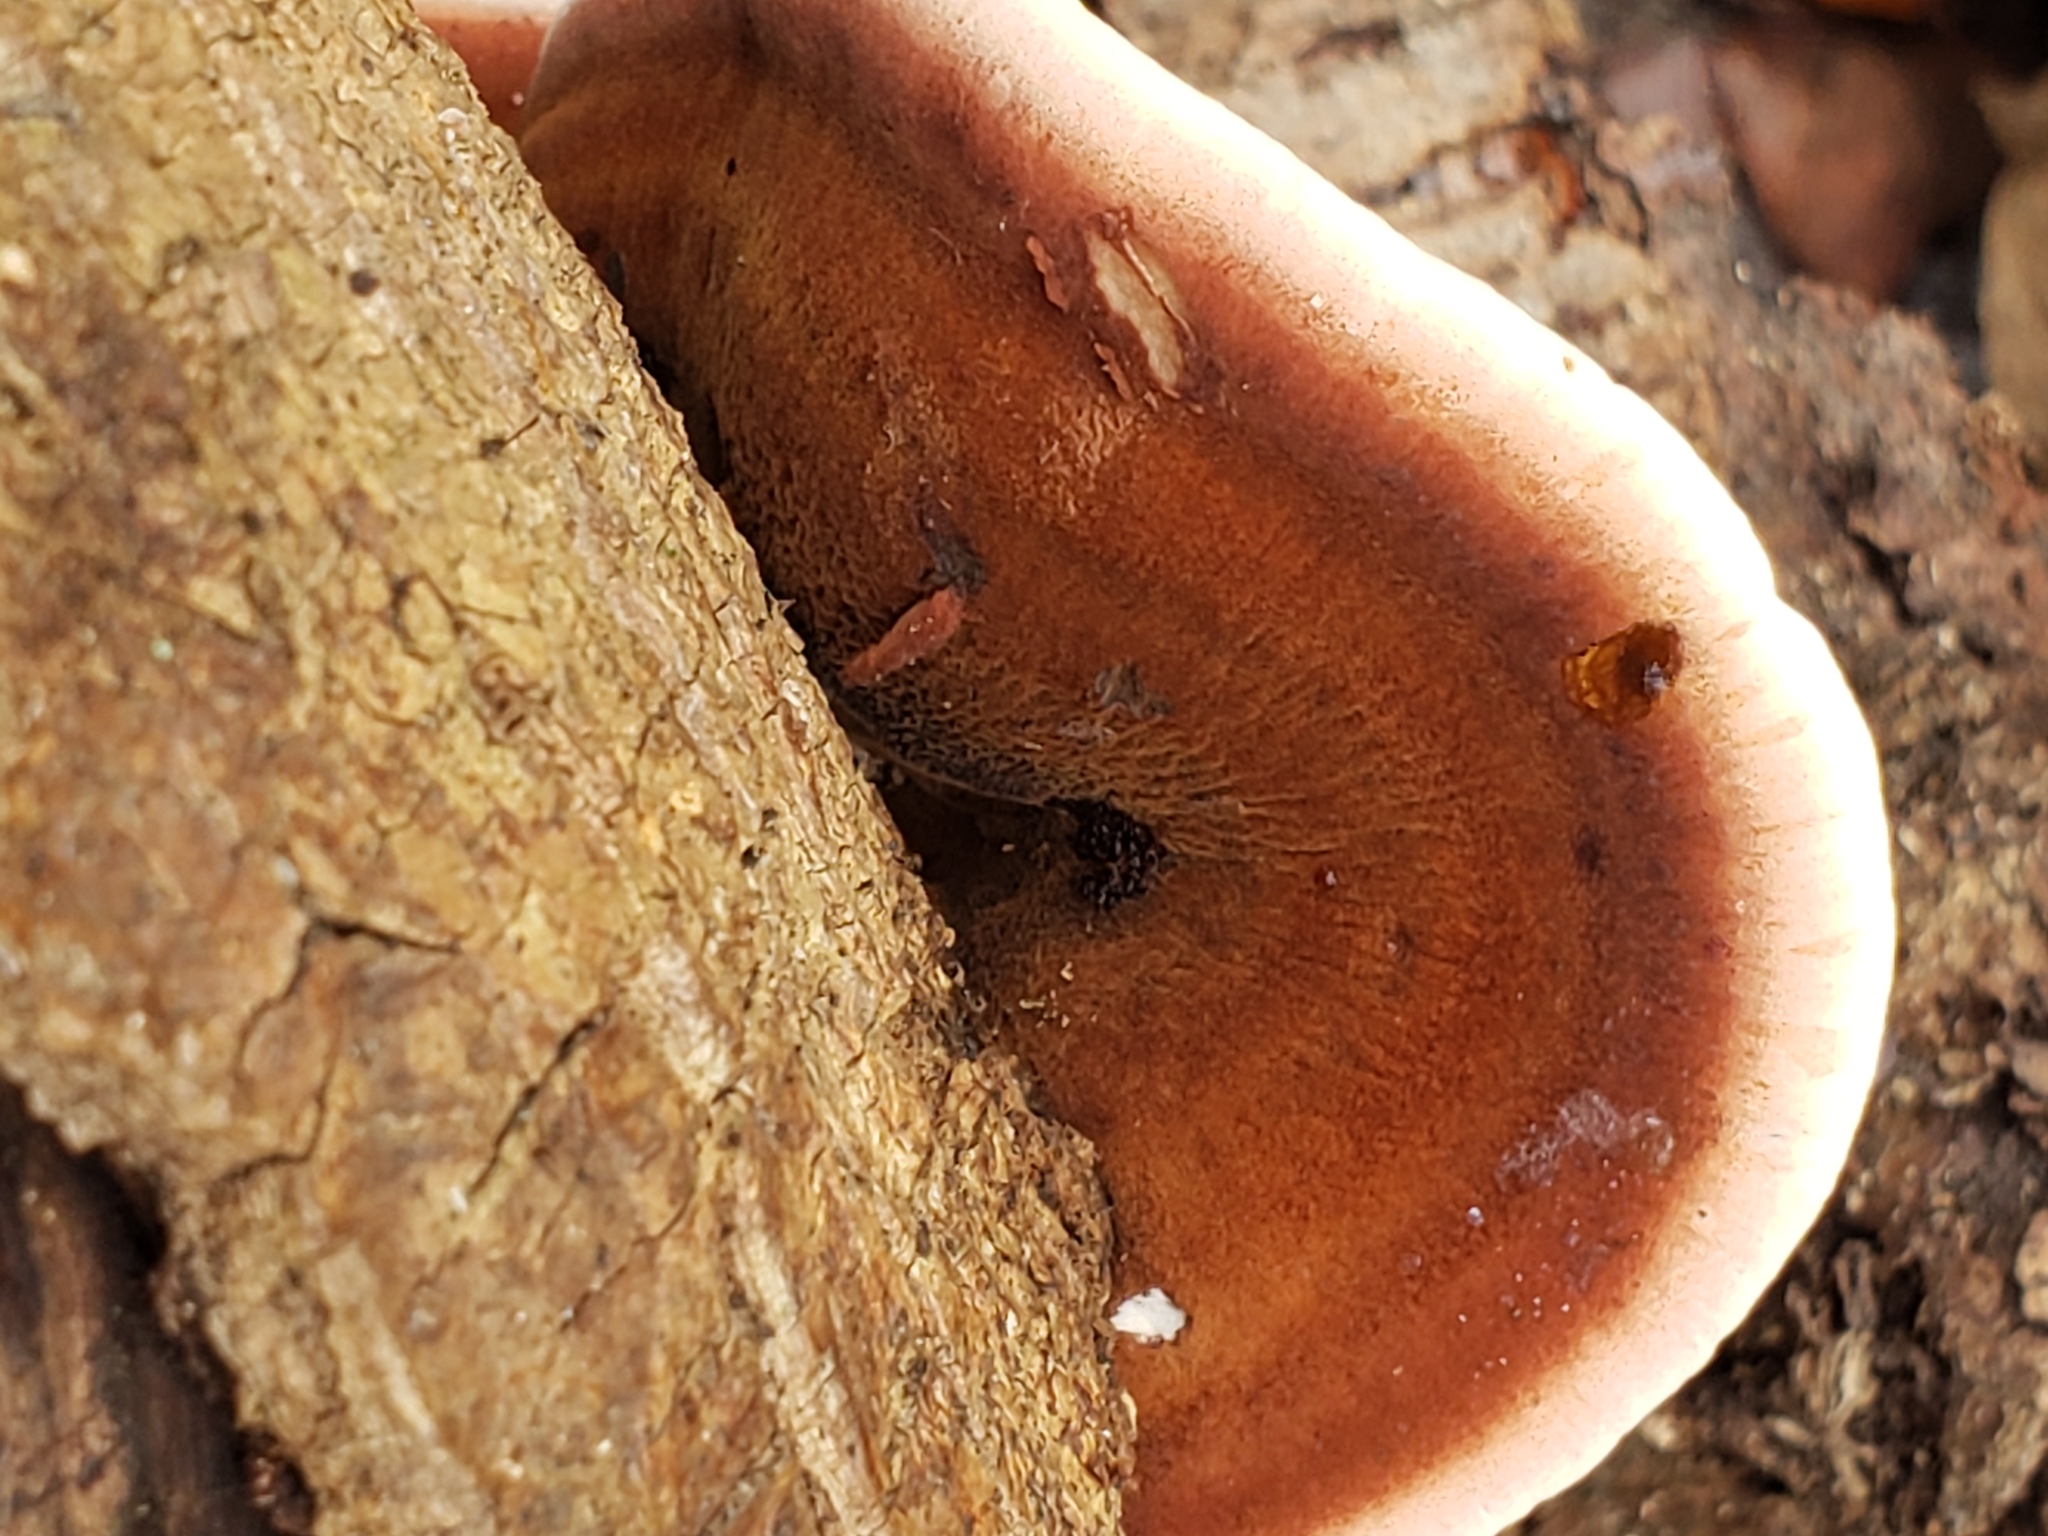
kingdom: Fungi
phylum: Basidiomycota
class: Agaricomycetes
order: Polyporales
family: Ischnodermataceae
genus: Ischnoderma
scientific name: Ischnoderma resinosum
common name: Resinous polypore
